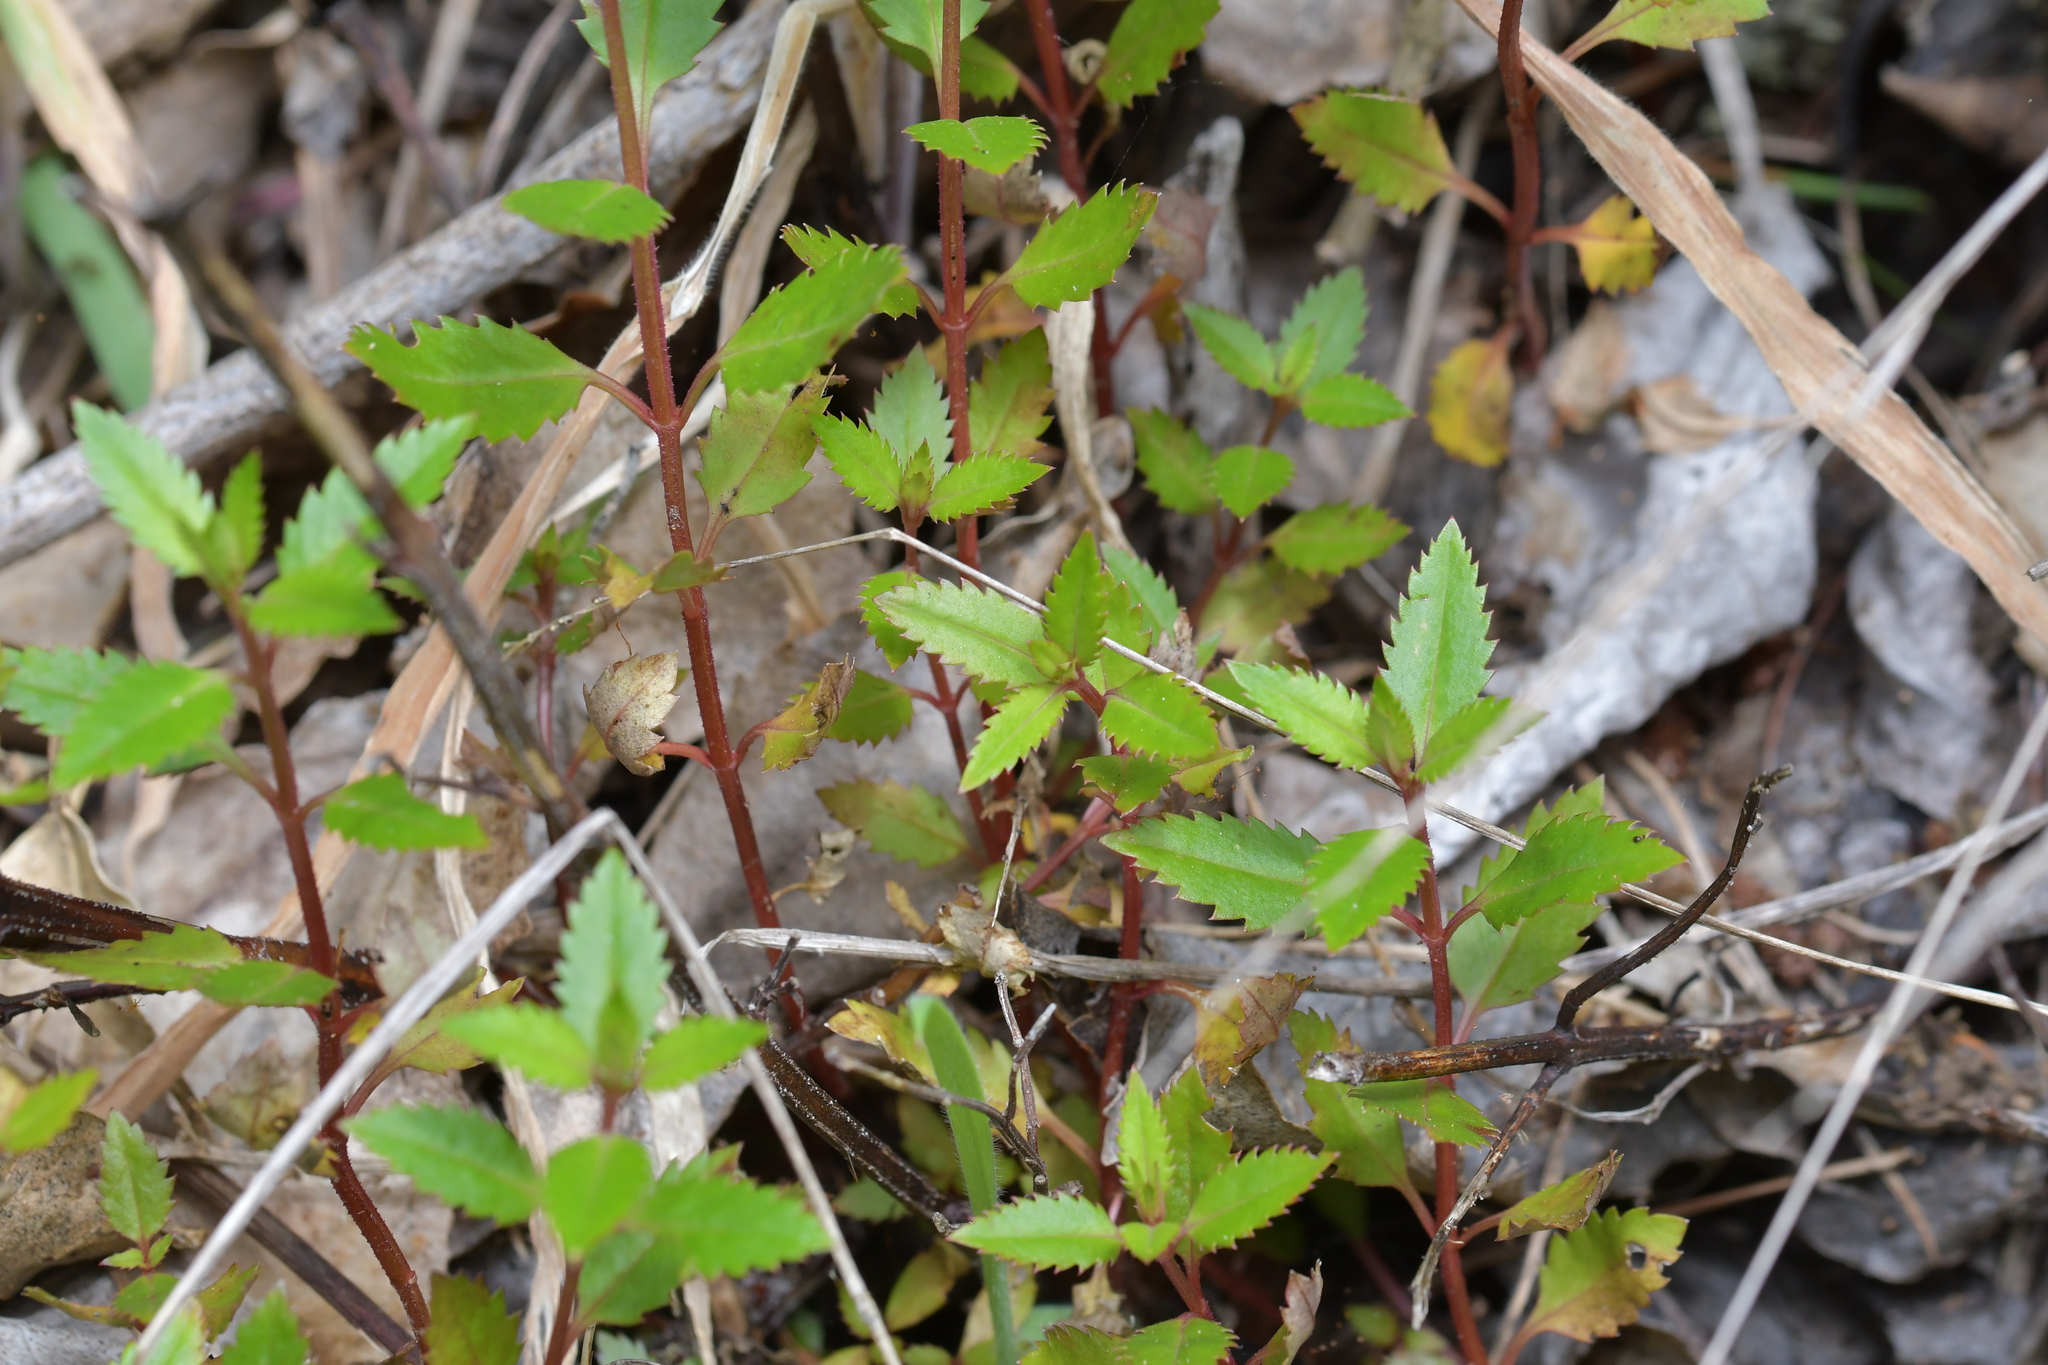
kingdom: Plantae
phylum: Tracheophyta
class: Magnoliopsida
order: Saxifragales
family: Haloragaceae
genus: Haloragis
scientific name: Haloragis erecta
